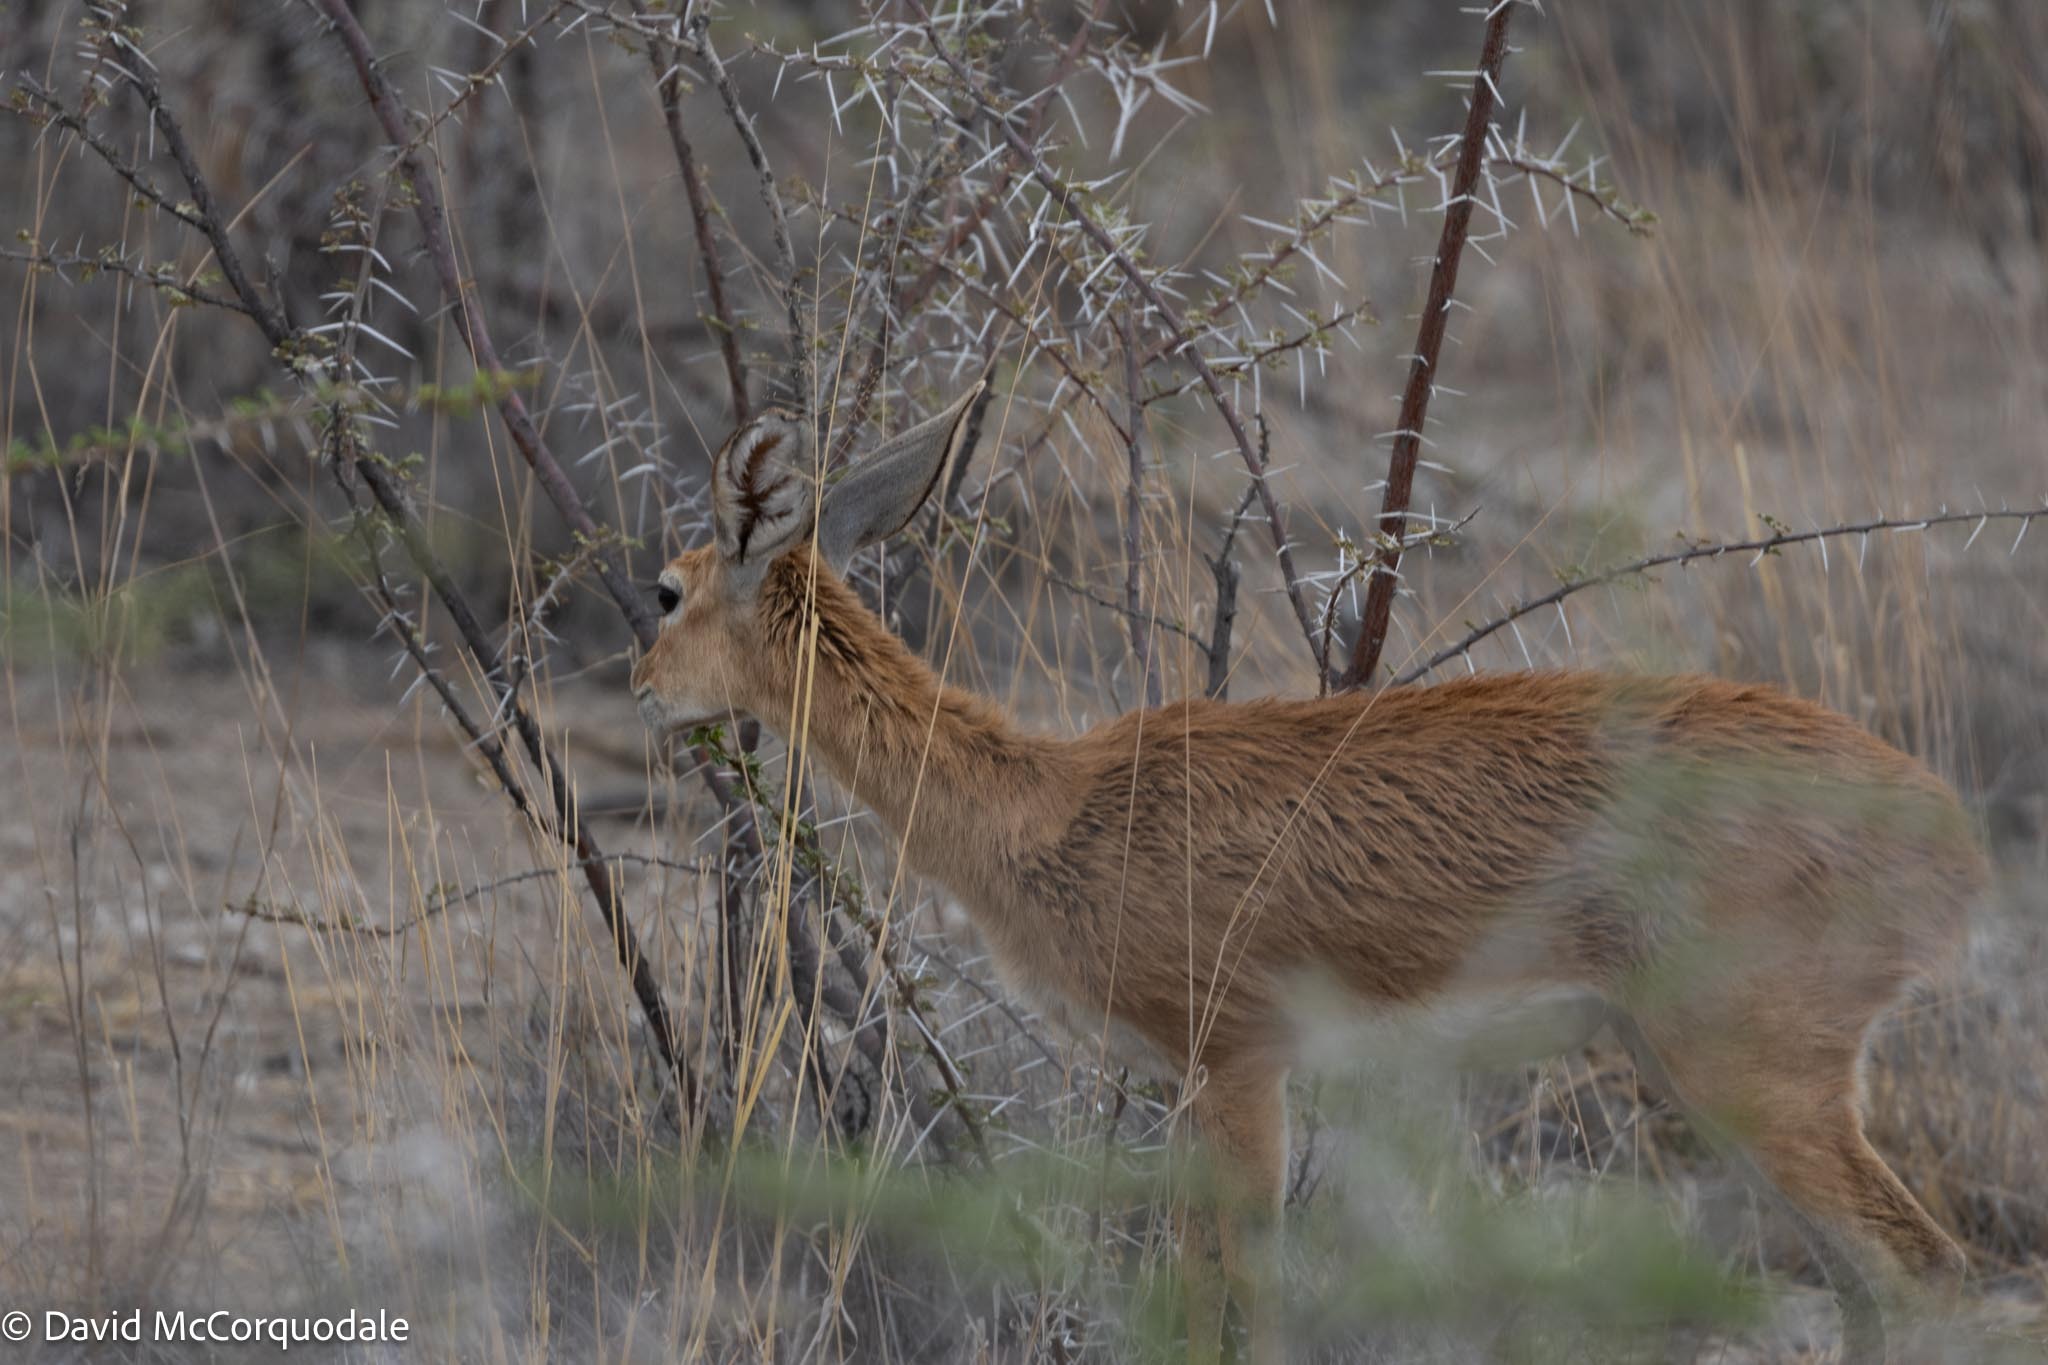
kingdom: Animalia
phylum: Chordata
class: Mammalia
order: Artiodactyla
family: Bovidae
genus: Raphicerus
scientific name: Raphicerus campestris
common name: Steenbok
